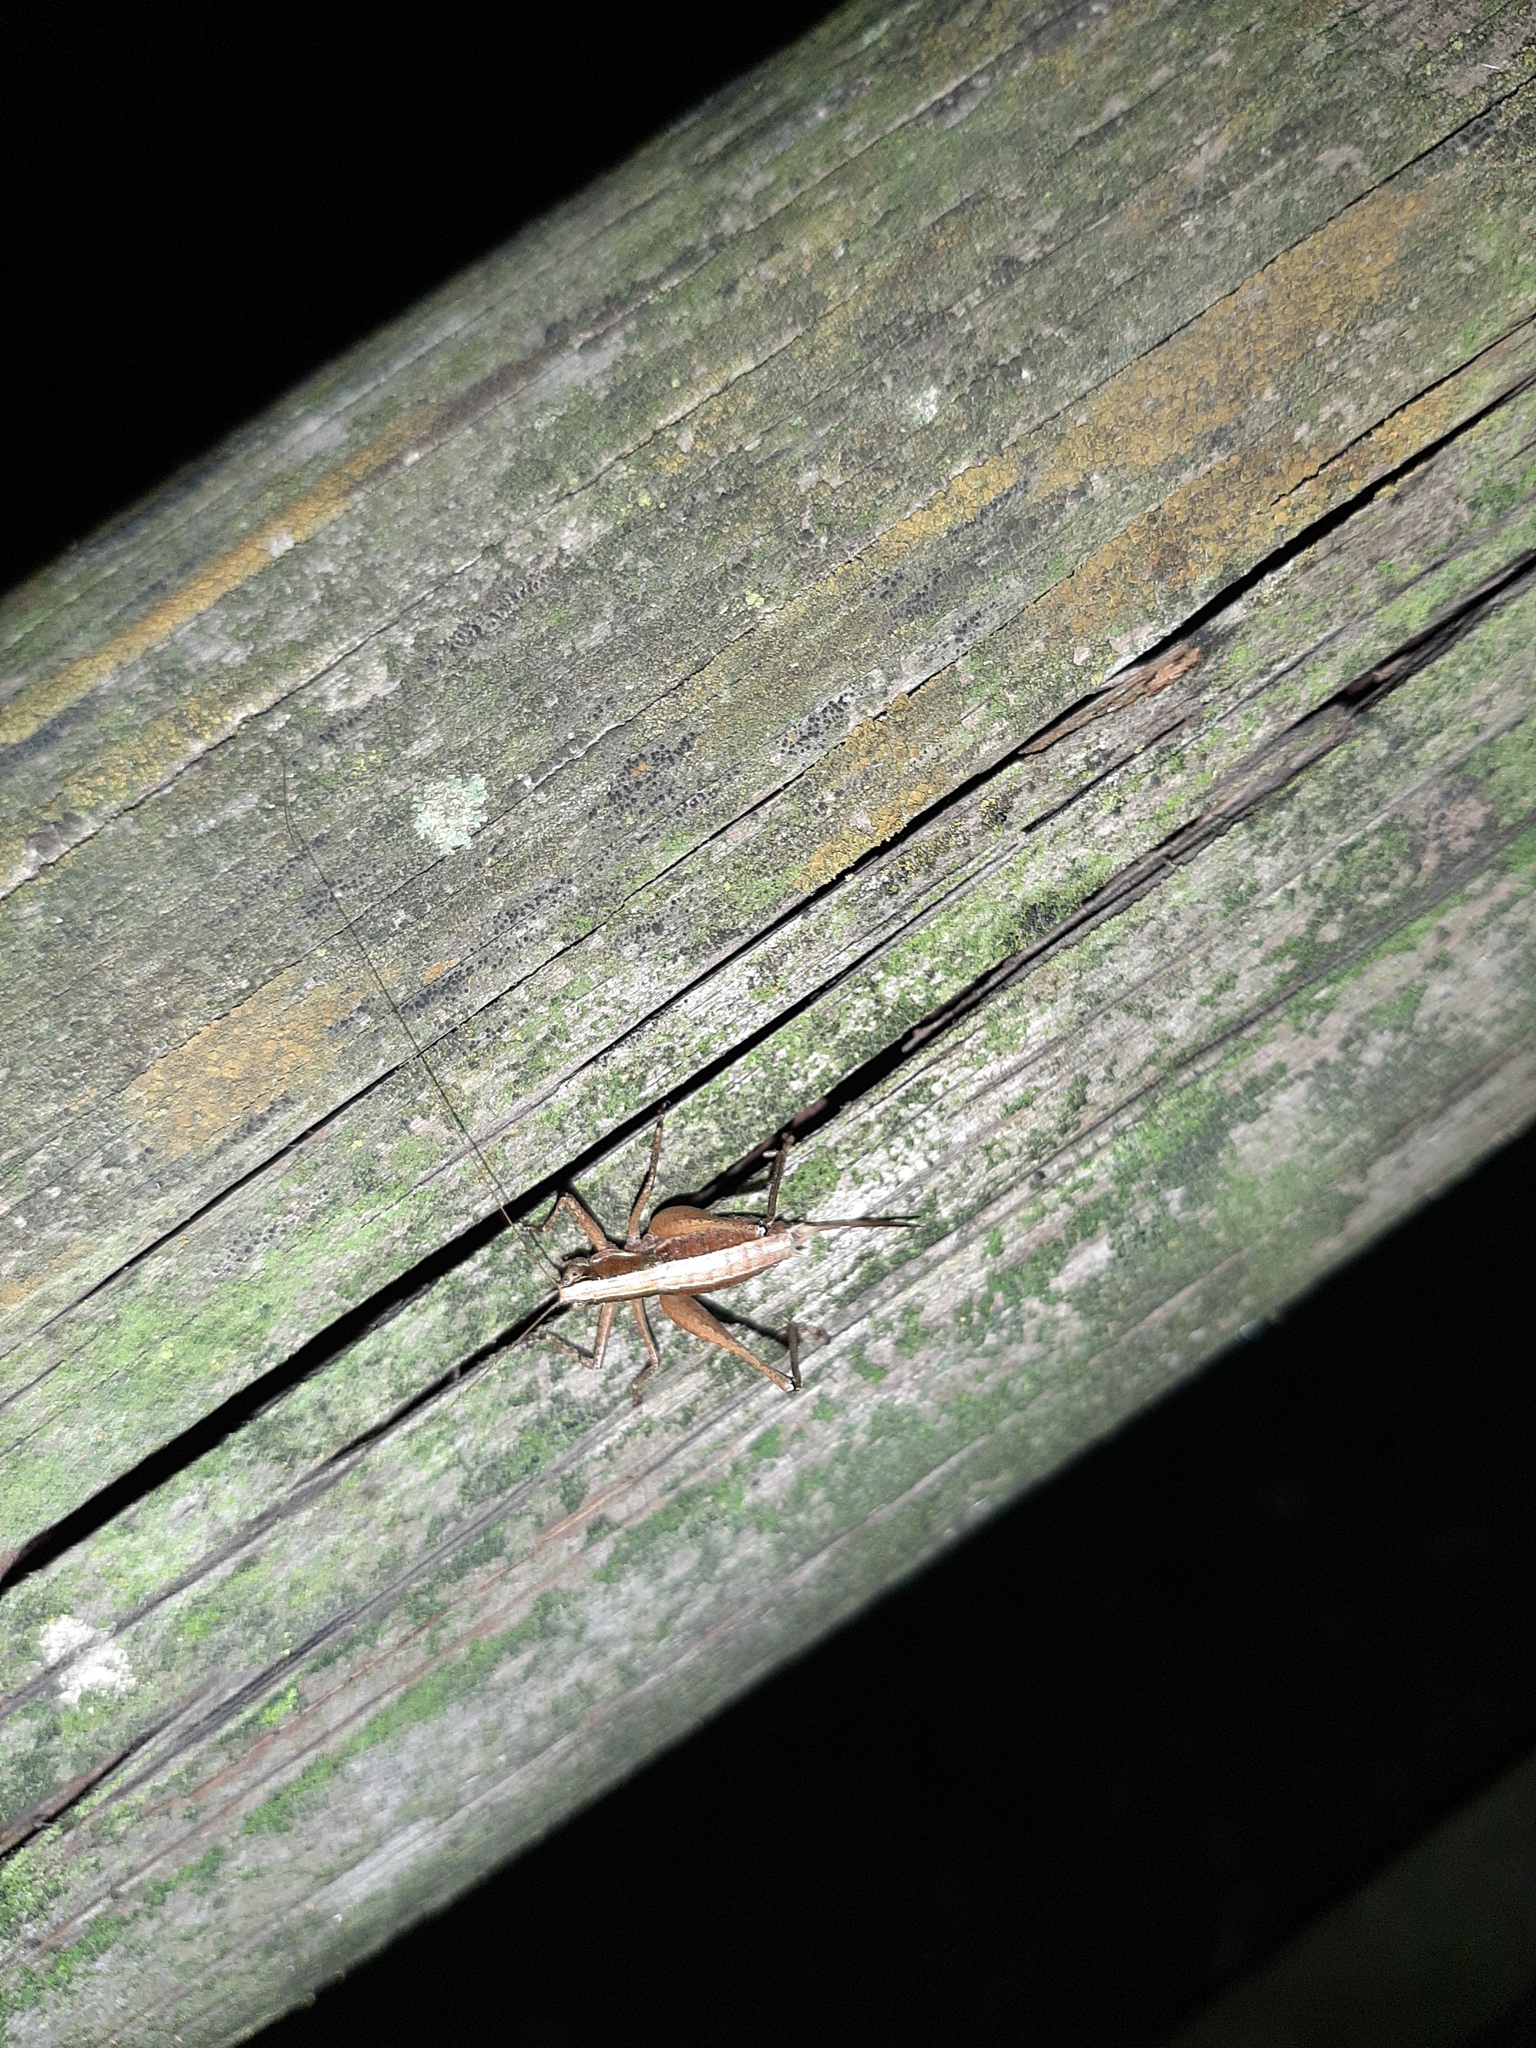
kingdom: Animalia
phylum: Arthropoda
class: Insecta
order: Orthoptera
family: Tettigoniidae
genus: Yersinella
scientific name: Yersinella raymondii
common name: Raymond's bush-cricket
